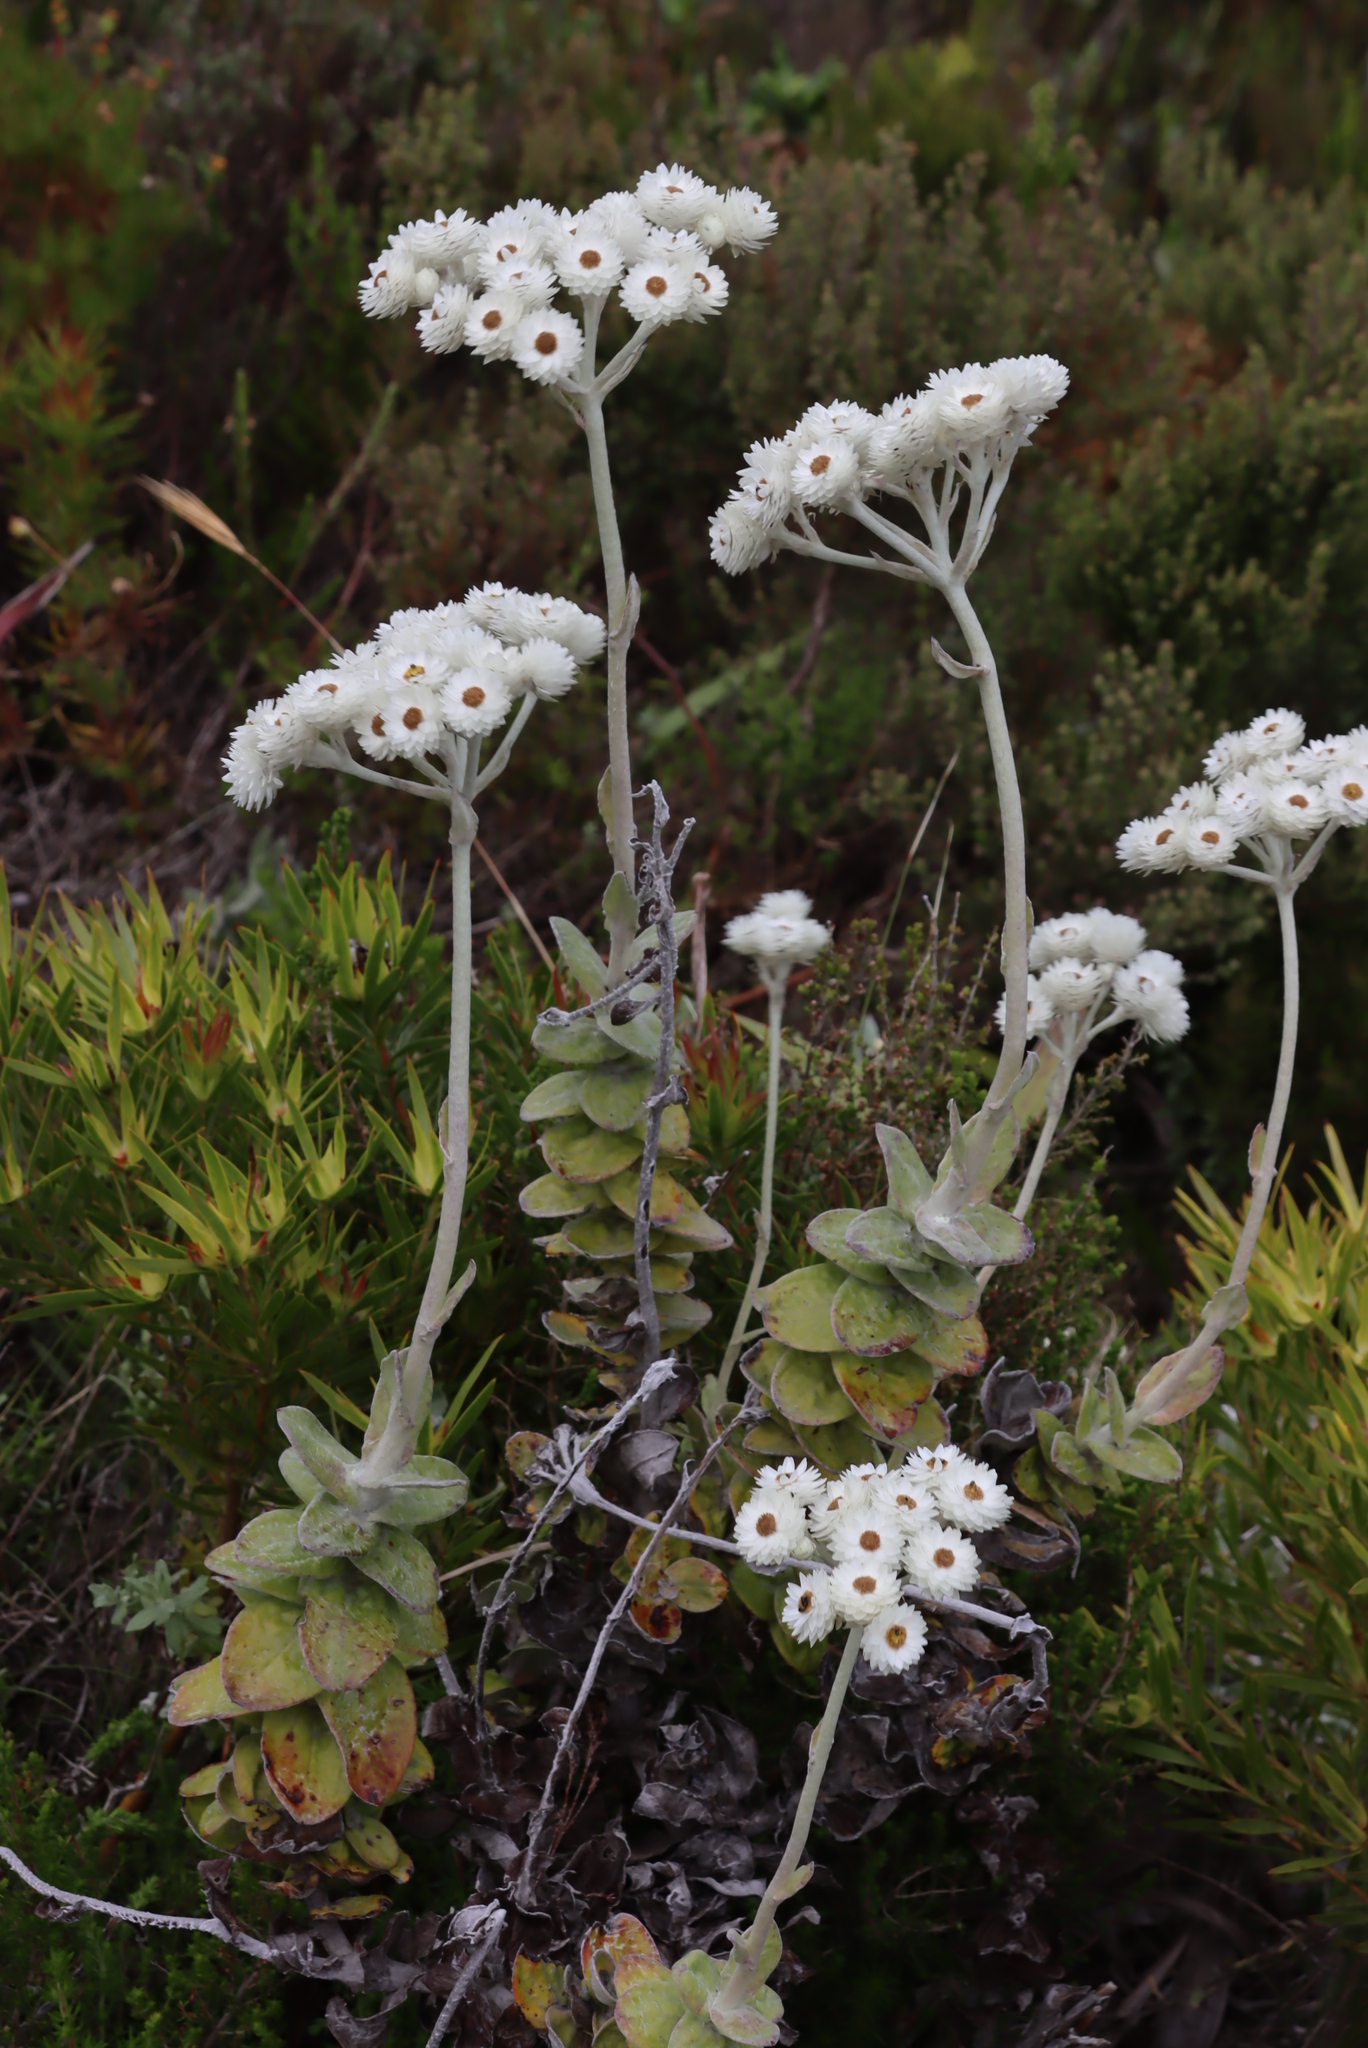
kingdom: Plantae
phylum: Tracheophyta
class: Magnoliopsida
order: Asterales
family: Asteraceae
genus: Helichrysum
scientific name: Helichrysum fruticans
